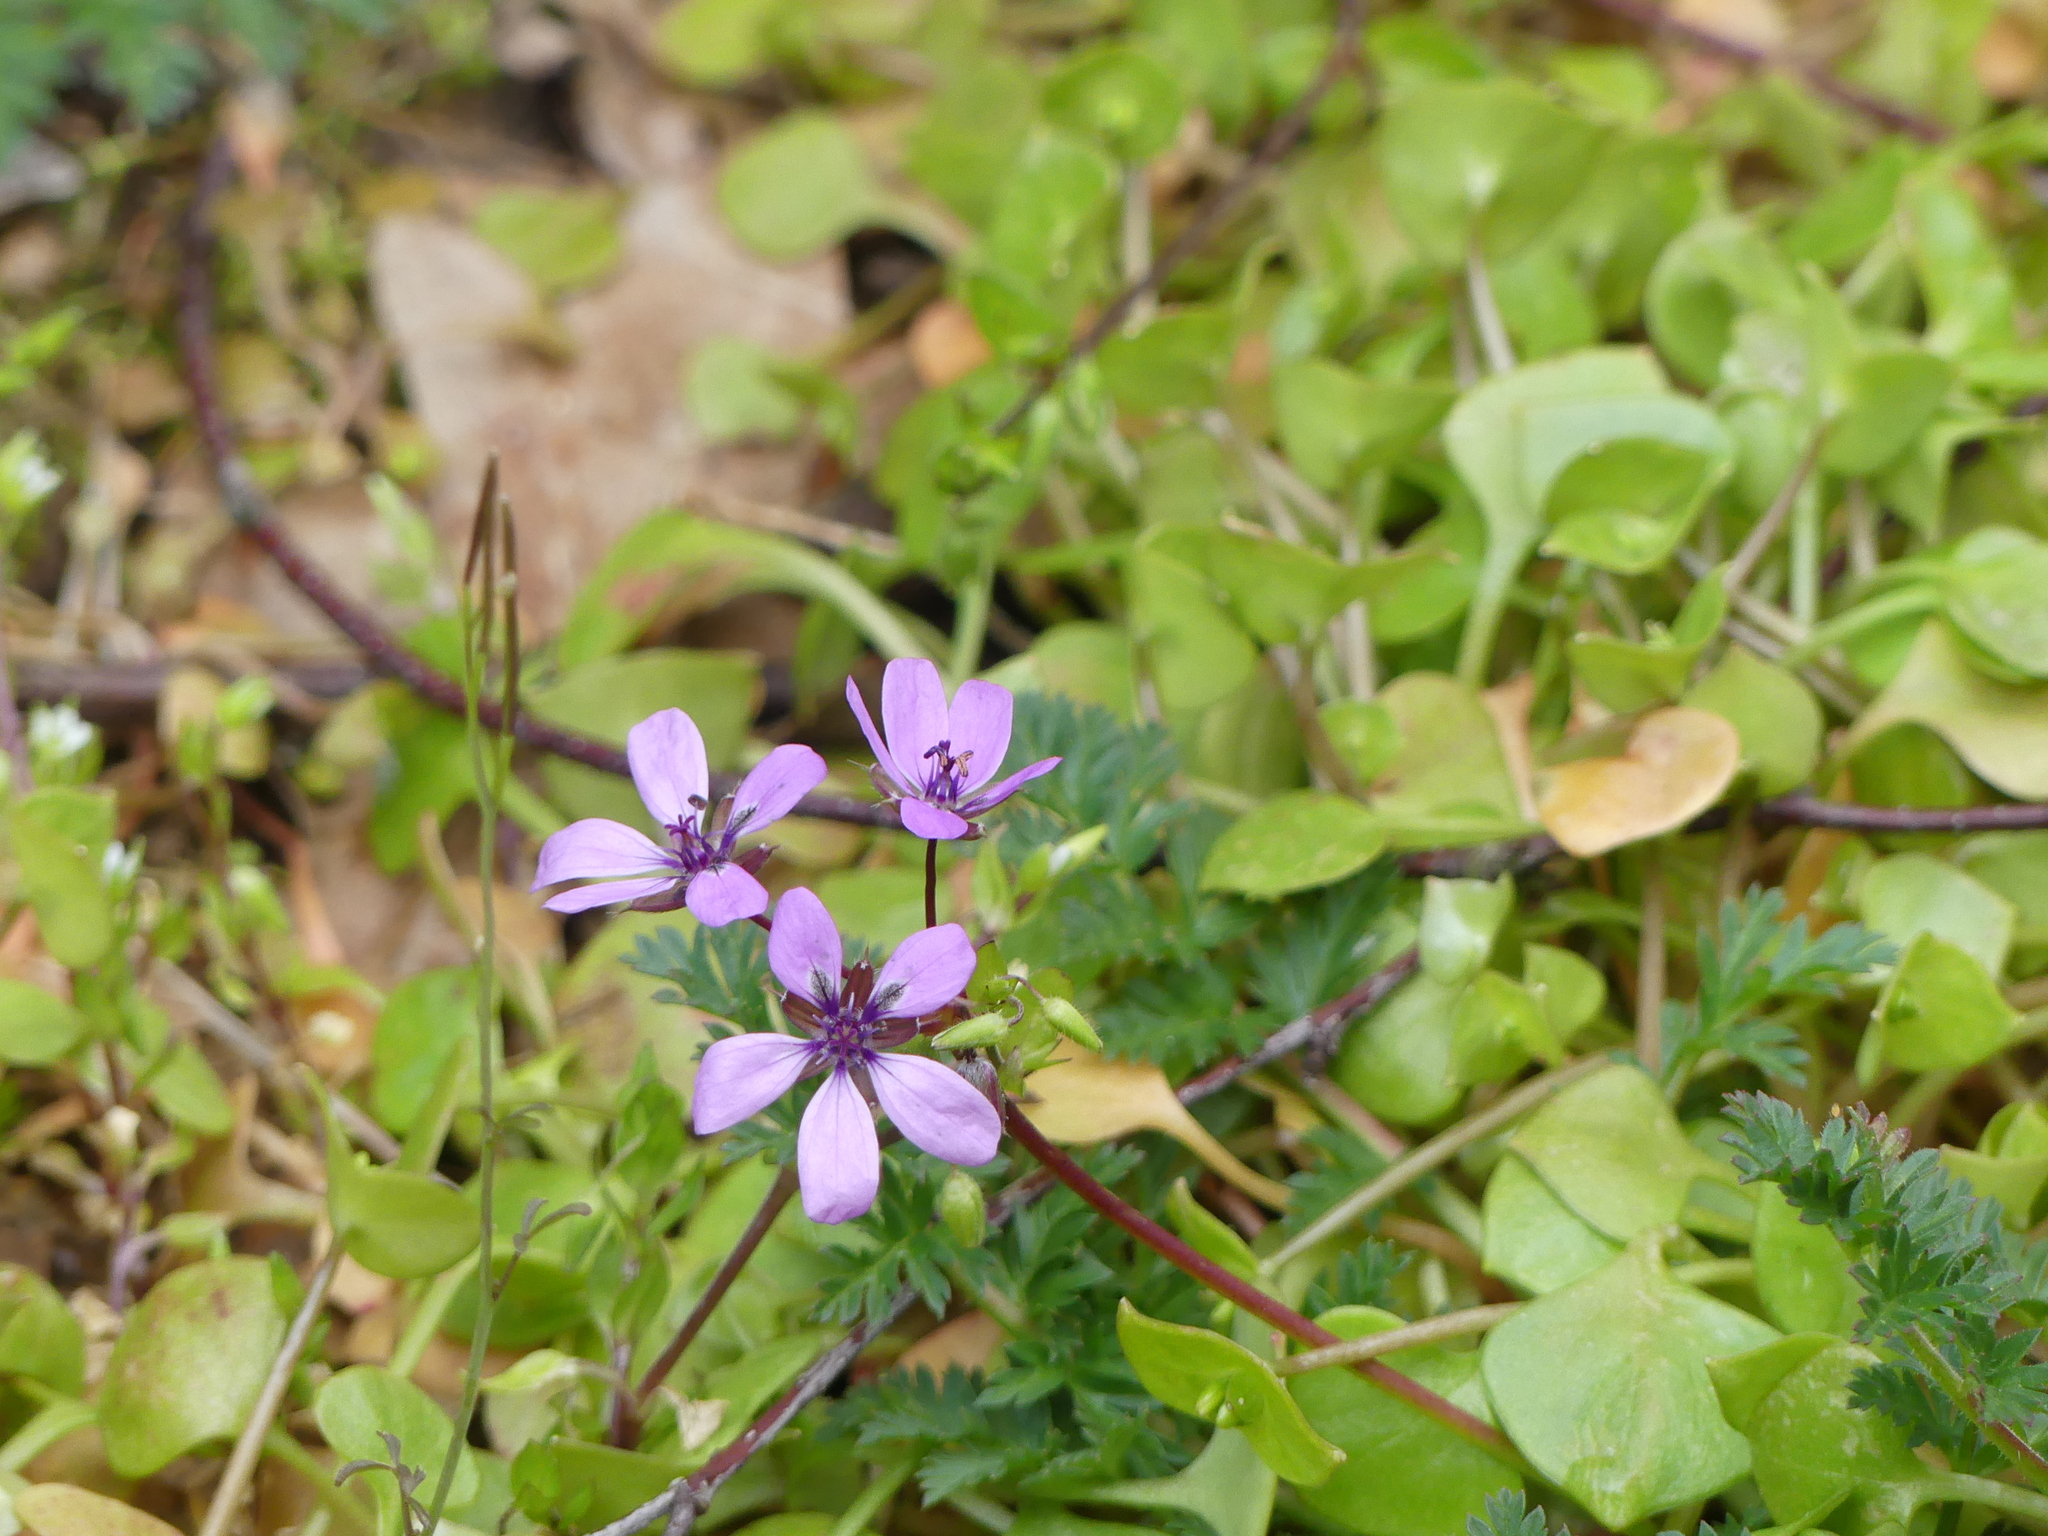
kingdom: Plantae
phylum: Tracheophyta
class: Magnoliopsida
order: Geraniales
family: Geraniaceae
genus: Erodium
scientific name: Erodium cicutarium
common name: Common stork's-bill
